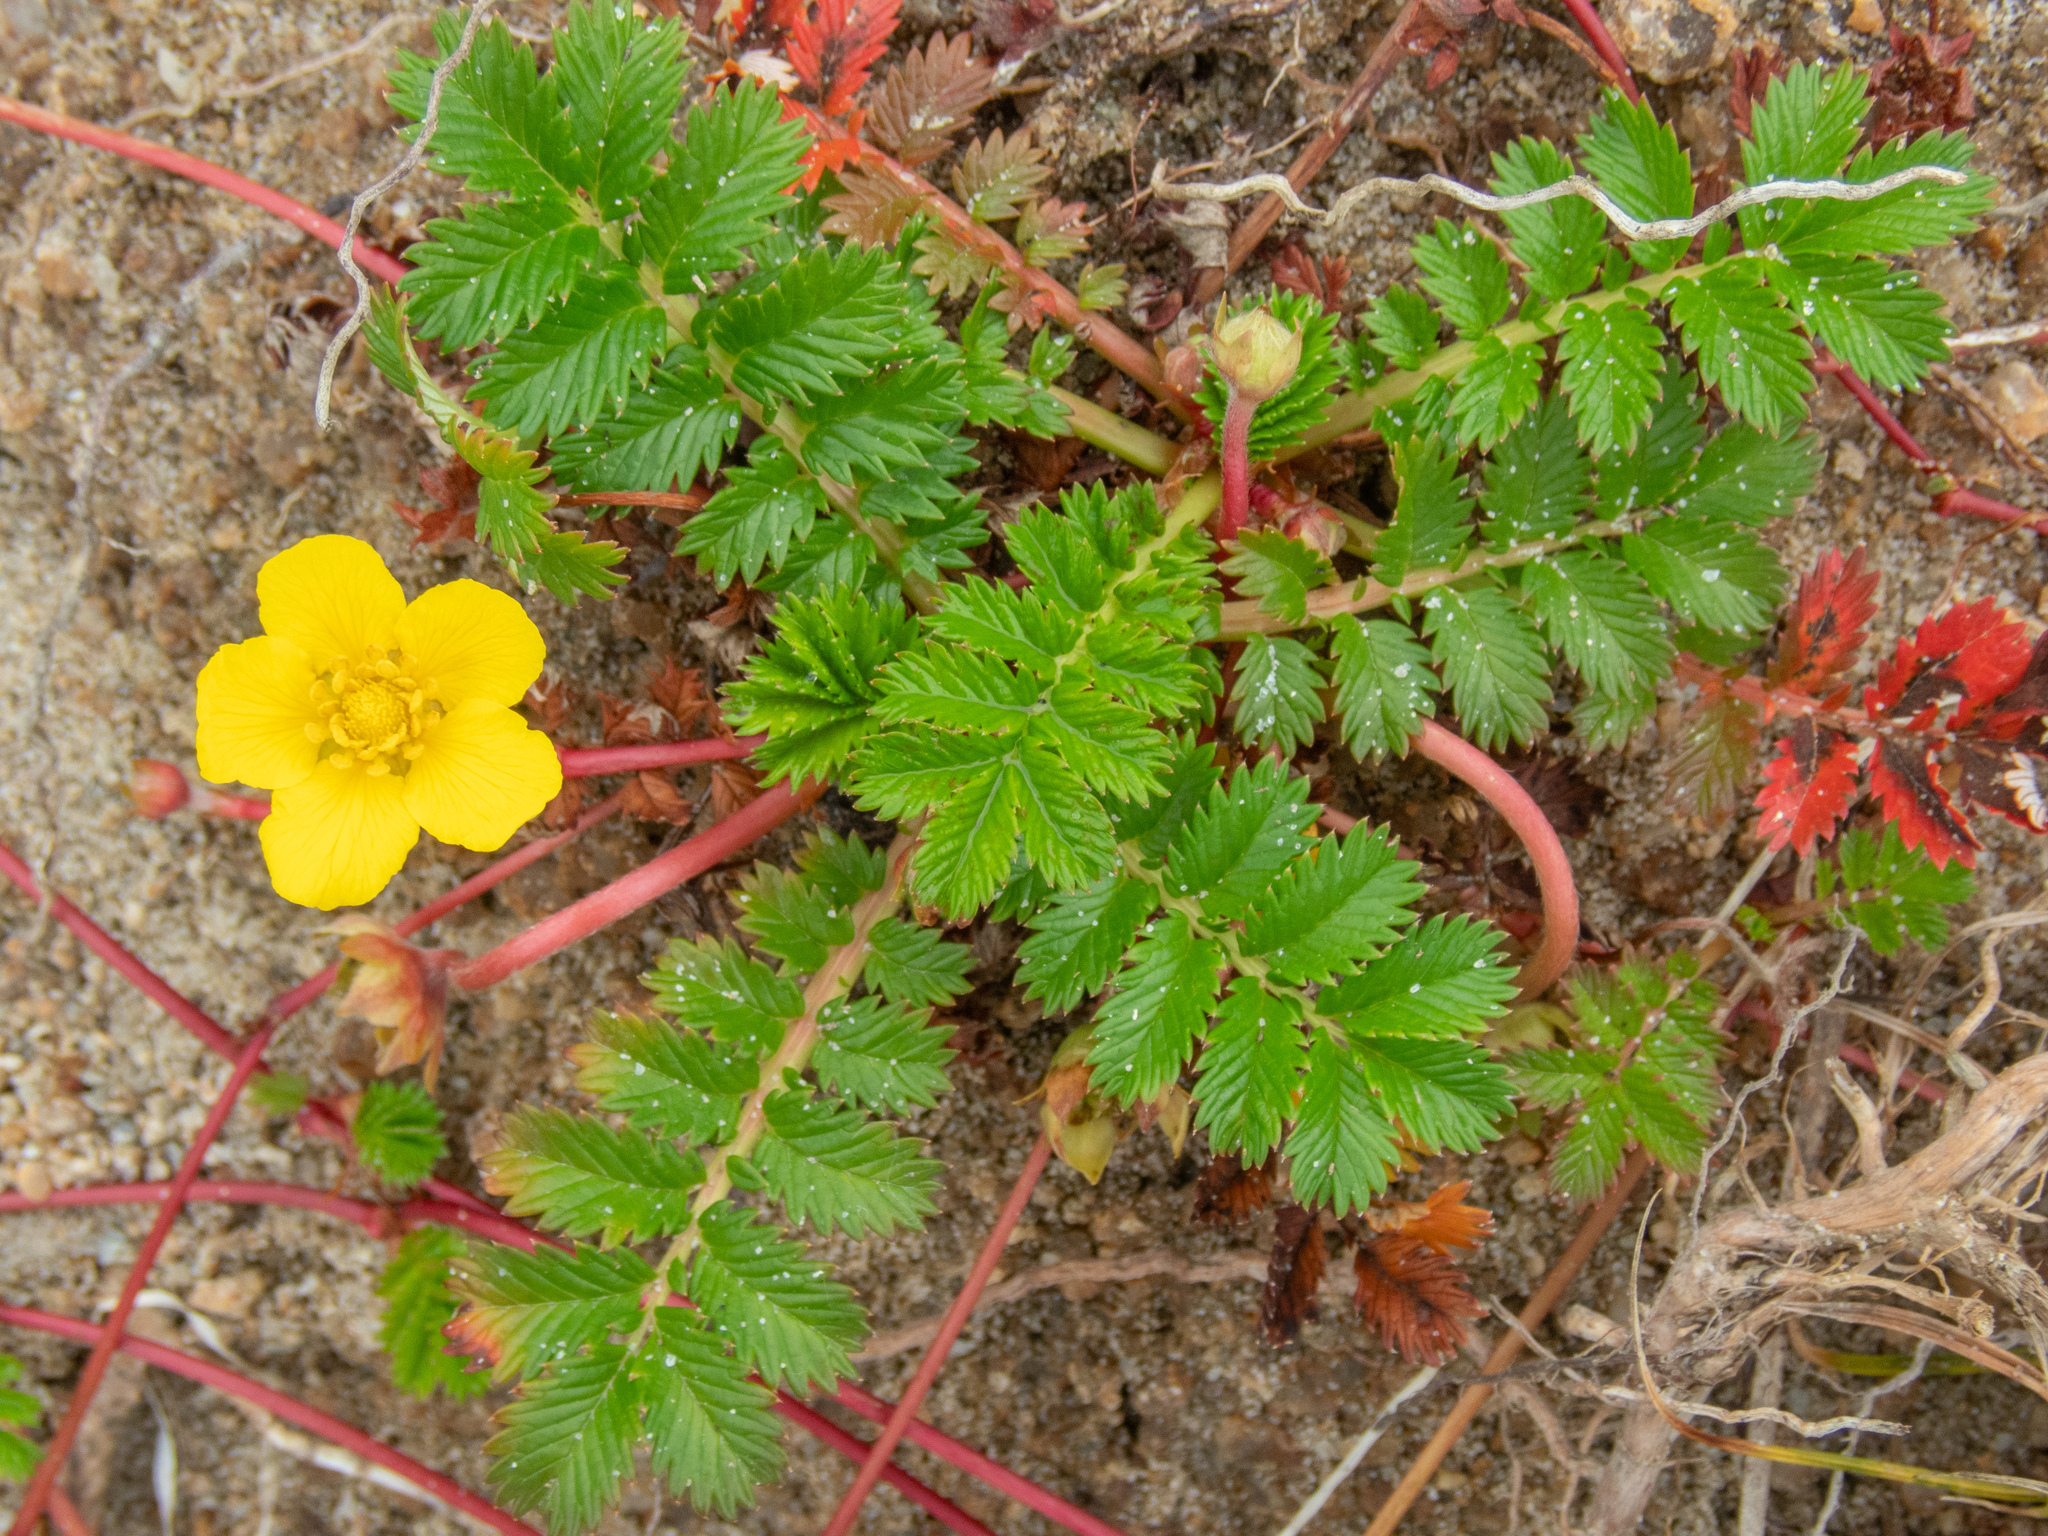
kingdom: Plantae
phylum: Tracheophyta
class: Magnoliopsida
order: Rosales
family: Rosaceae
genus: Argentina
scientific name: Argentina anserina
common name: Common silverweed
